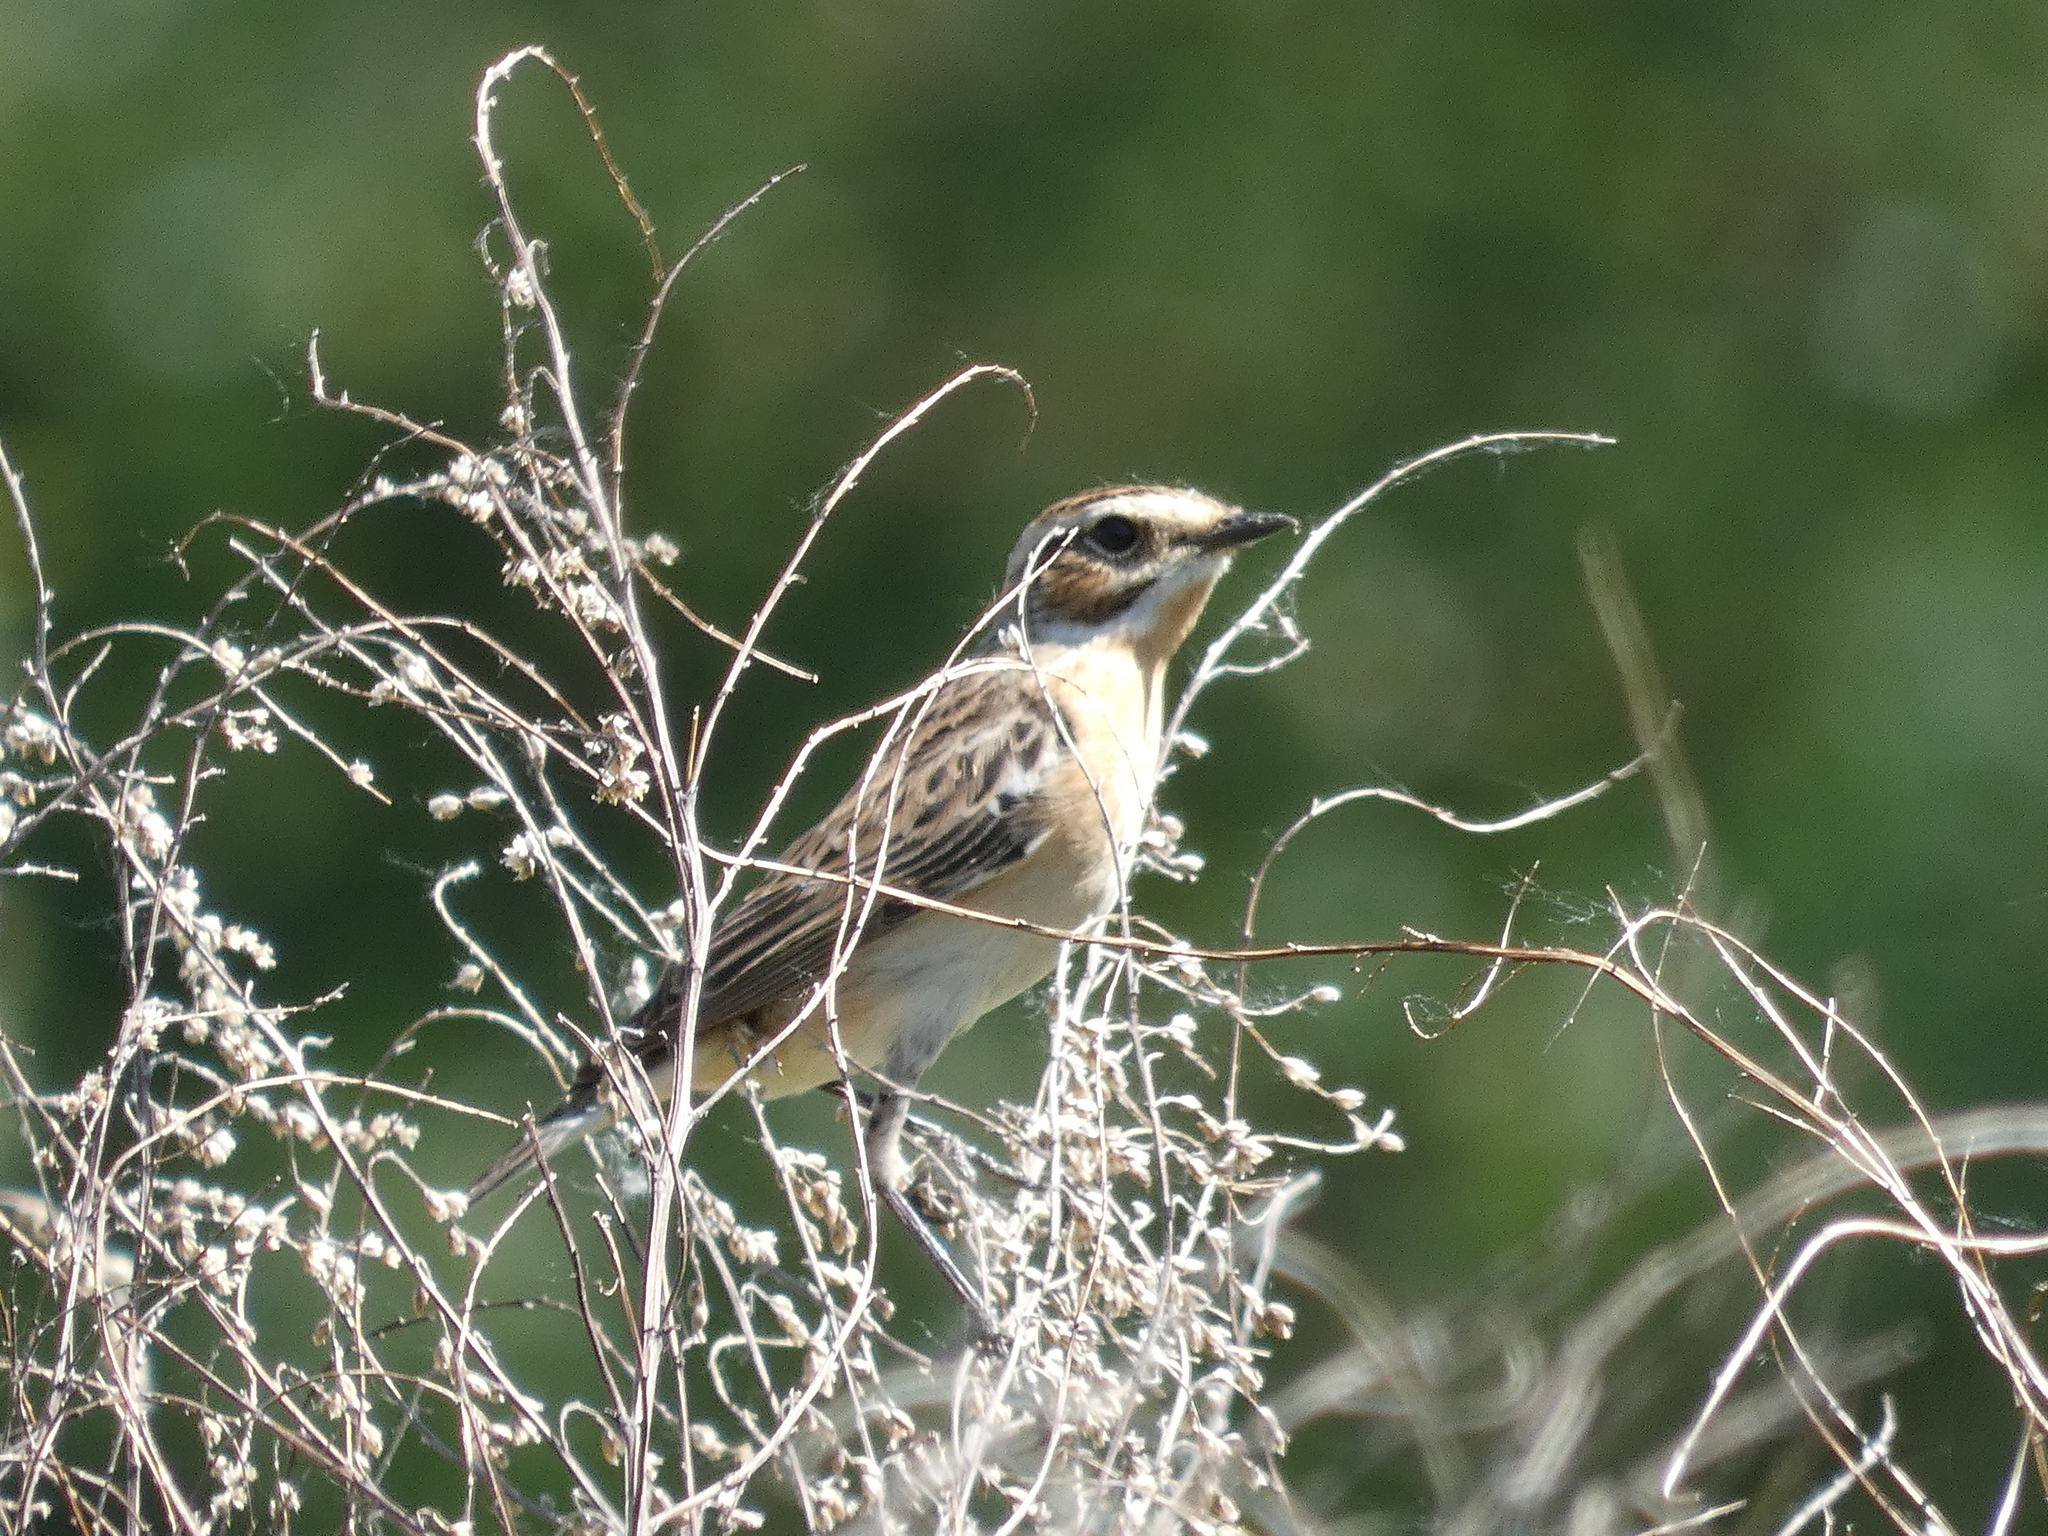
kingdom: Animalia
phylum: Chordata
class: Aves
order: Passeriformes
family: Muscicapidae
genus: Saxicola
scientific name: Saxicola rubetra
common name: Whinchat
